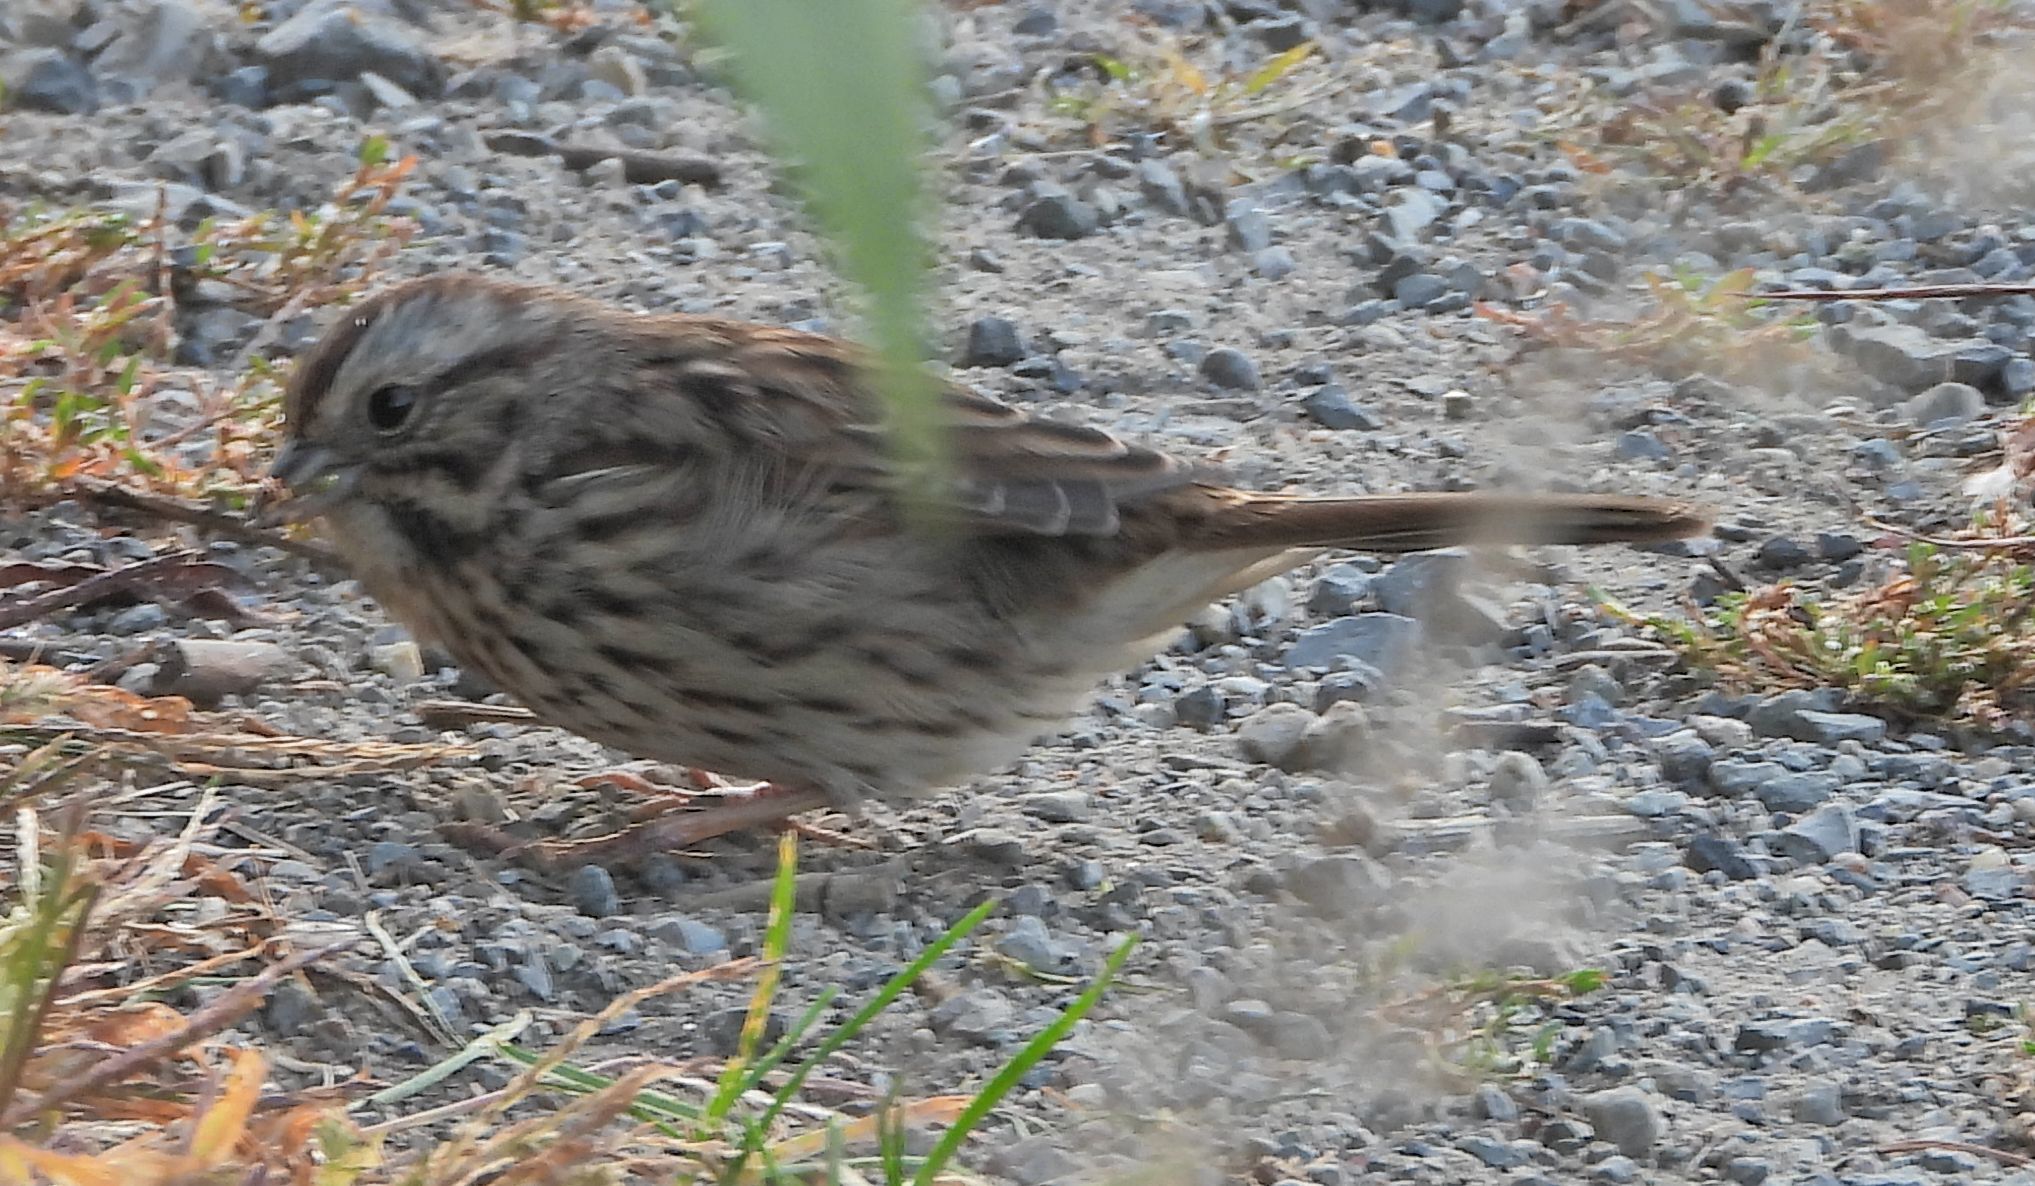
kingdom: Animalia
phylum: Chordata
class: Aves
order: Passeriformes
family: Passerellidae
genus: Melospiza
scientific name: Melospiza melodia
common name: Song sparrow
